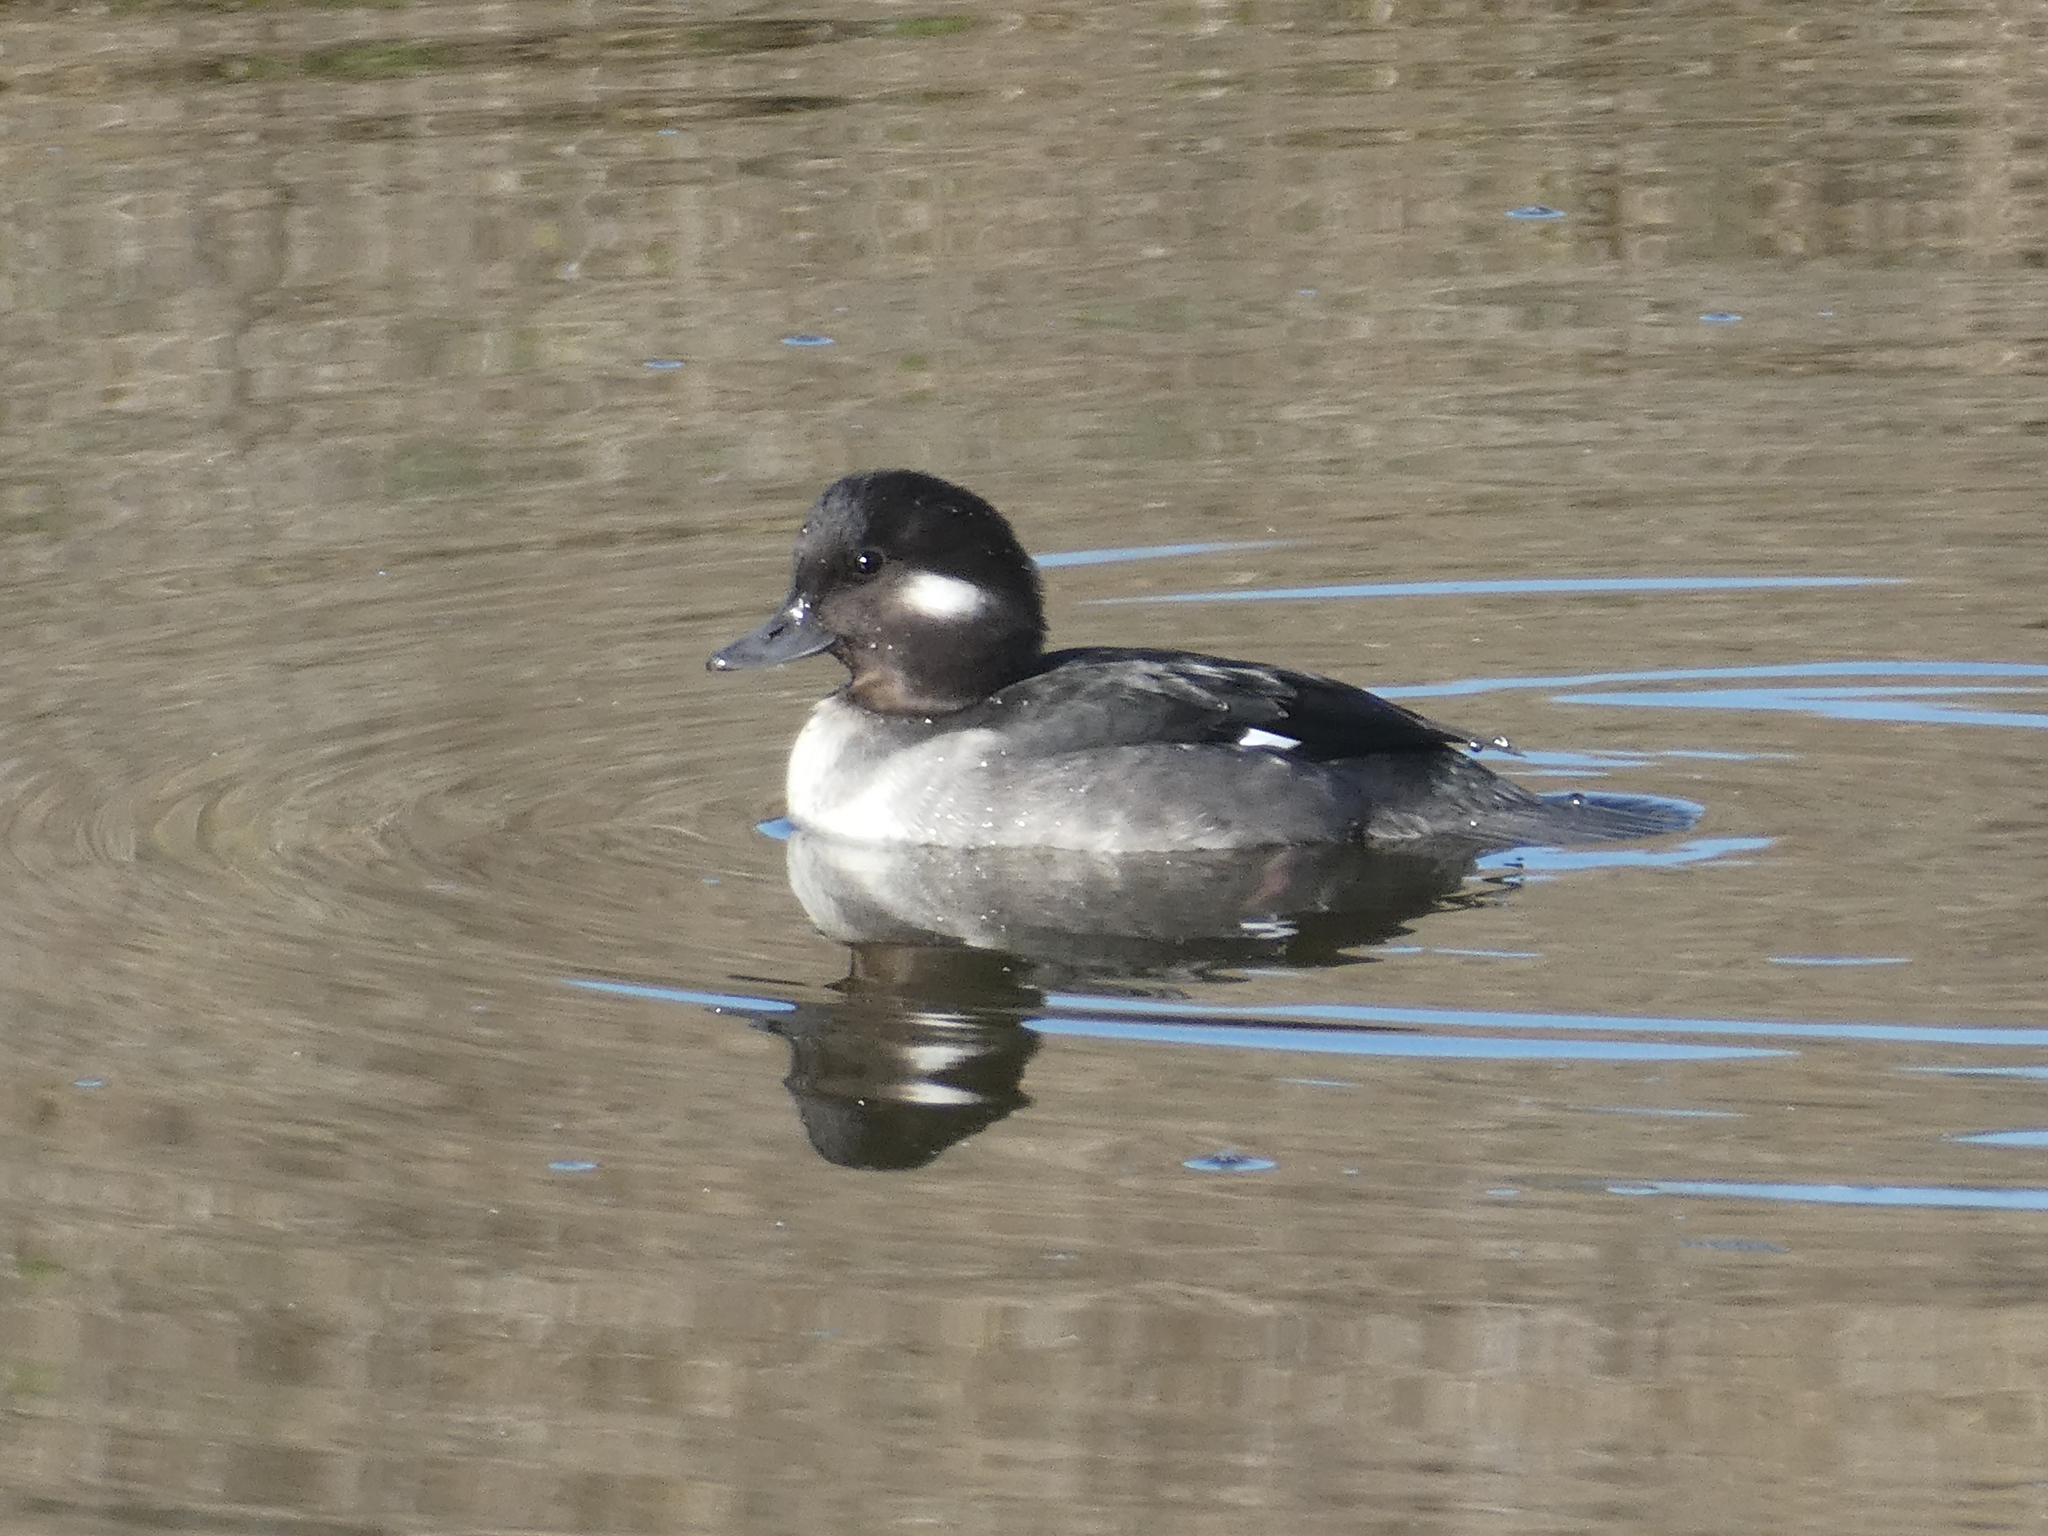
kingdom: Animalia
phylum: Chordata
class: Aves
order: Anseriformes
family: Anatidae
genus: Bucephala
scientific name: Bucephala albeola
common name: Bufflehead
